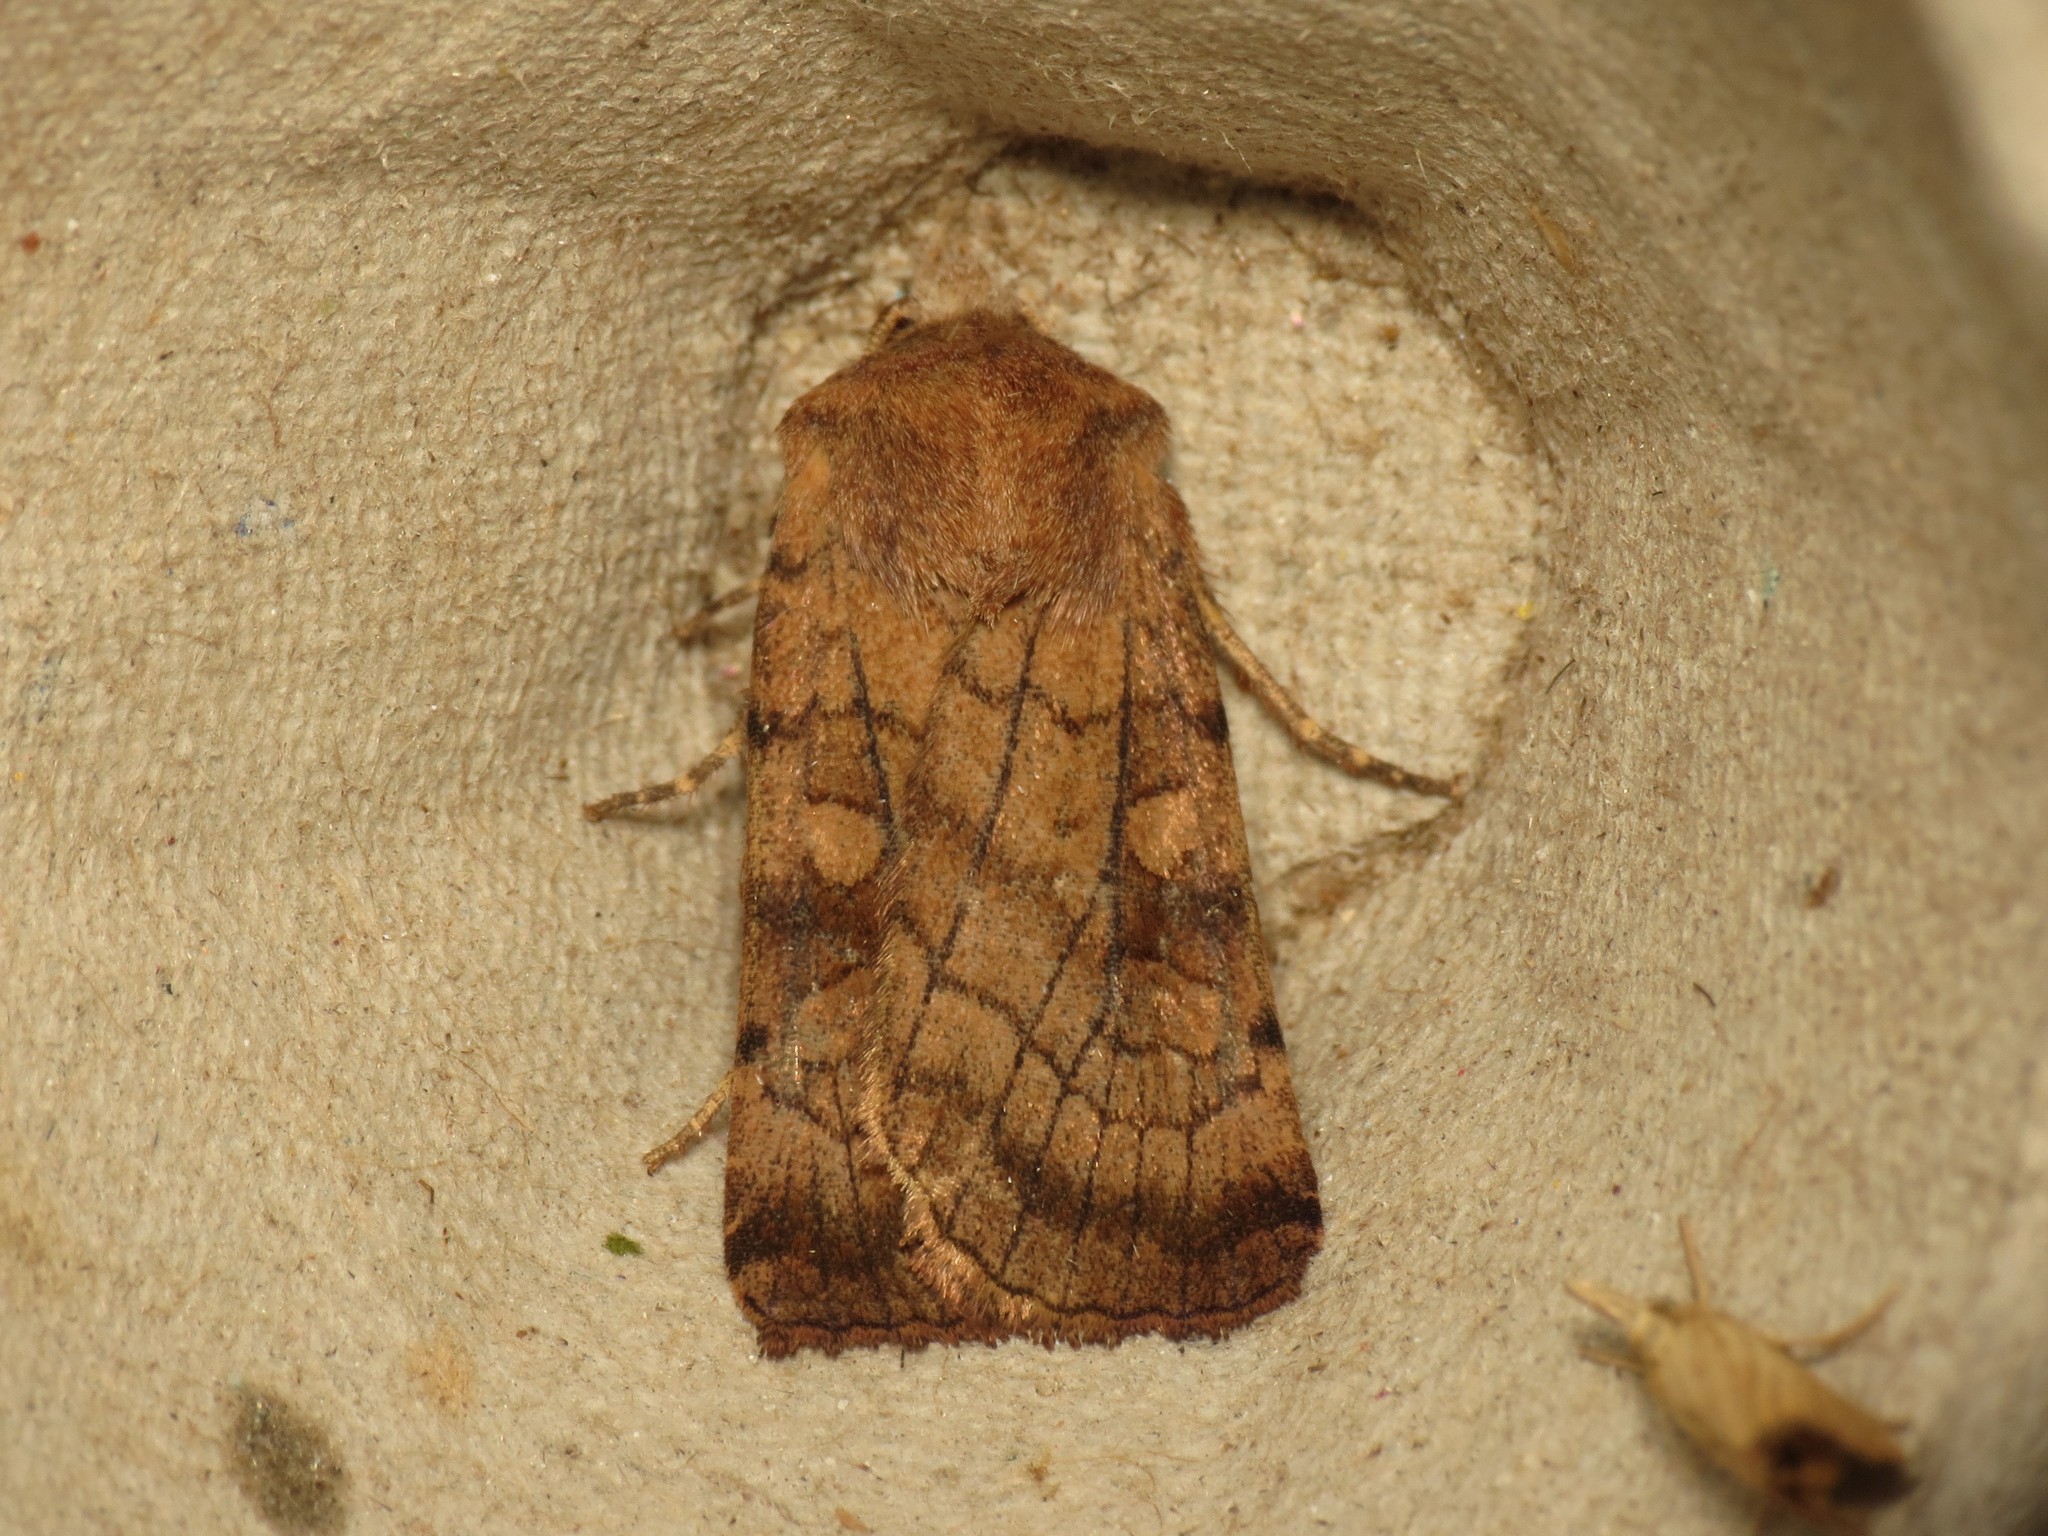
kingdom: Animalia
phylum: Arthropoda
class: Insecta
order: Lepidoptera
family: Noctuidae
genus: Xestia
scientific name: Xestia sexstrigata
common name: Six-striped rustic
